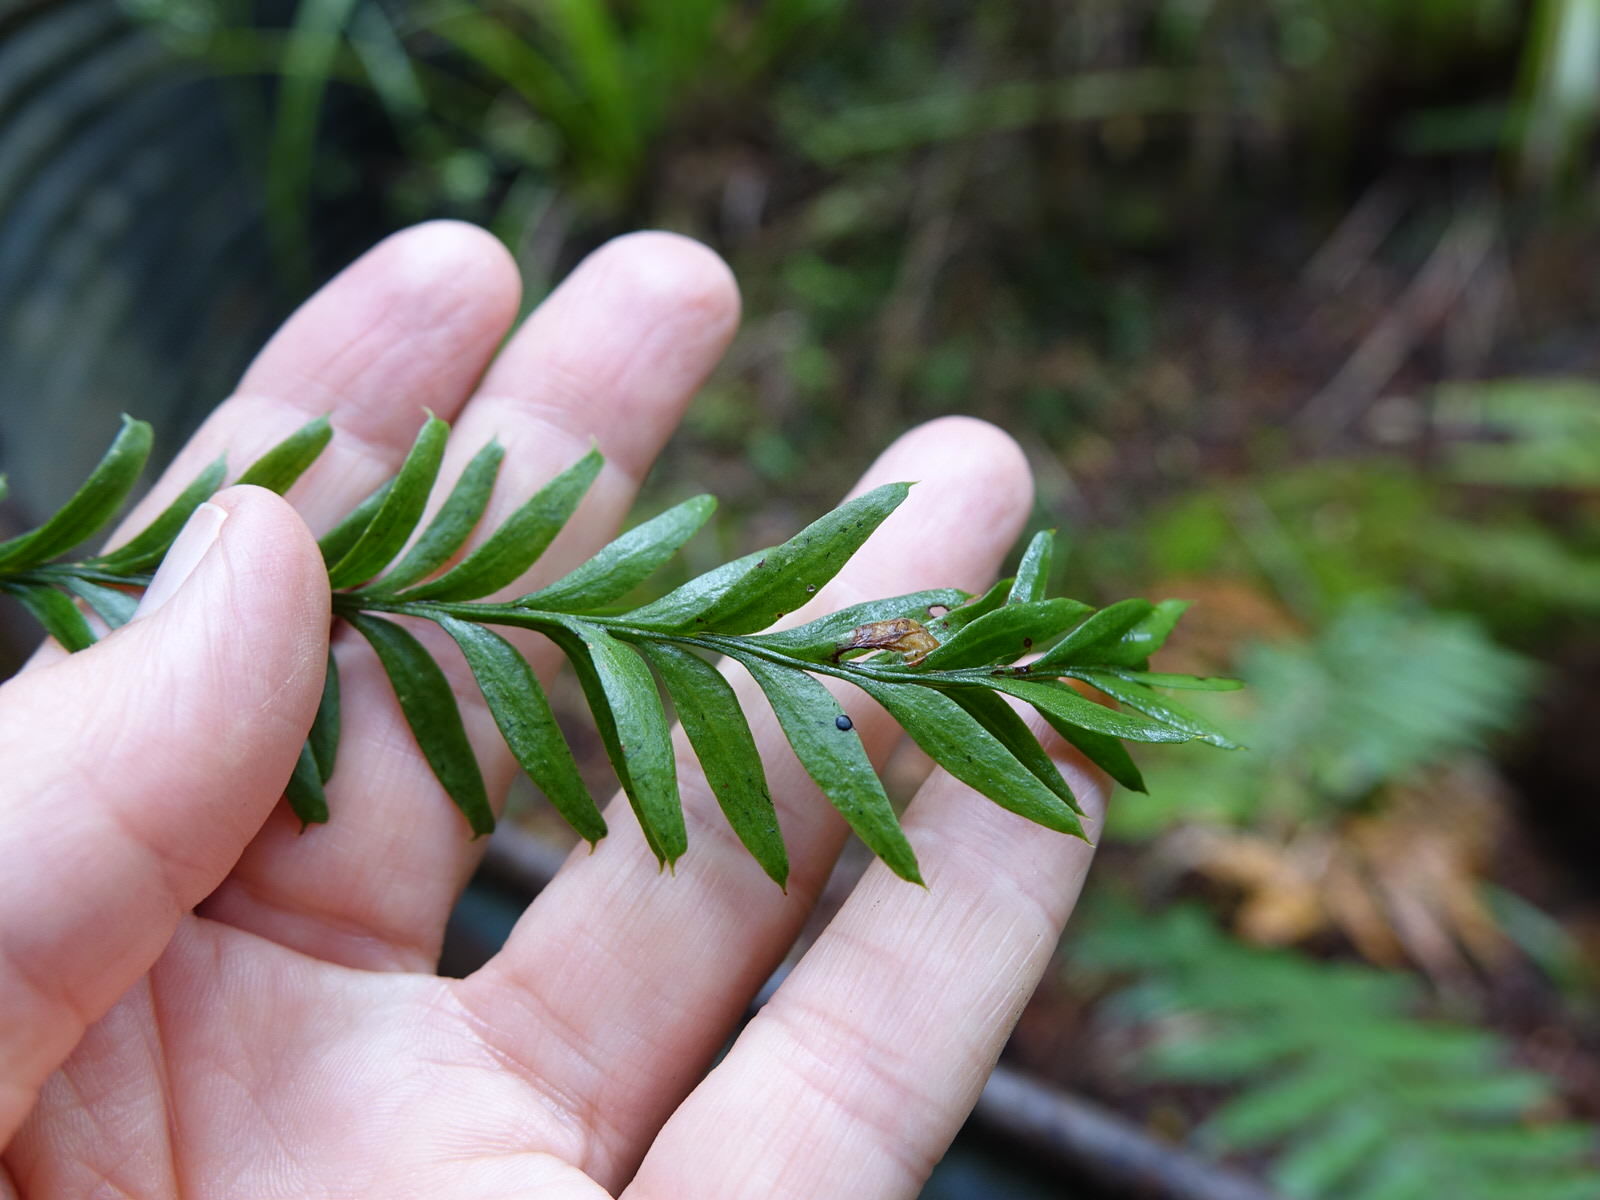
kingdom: Plantae
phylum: Tracheophyta
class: Polypodiopsida
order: Psilotales
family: Psilotaceae
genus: Tmesipteris
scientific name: Tmesipteris elongata
